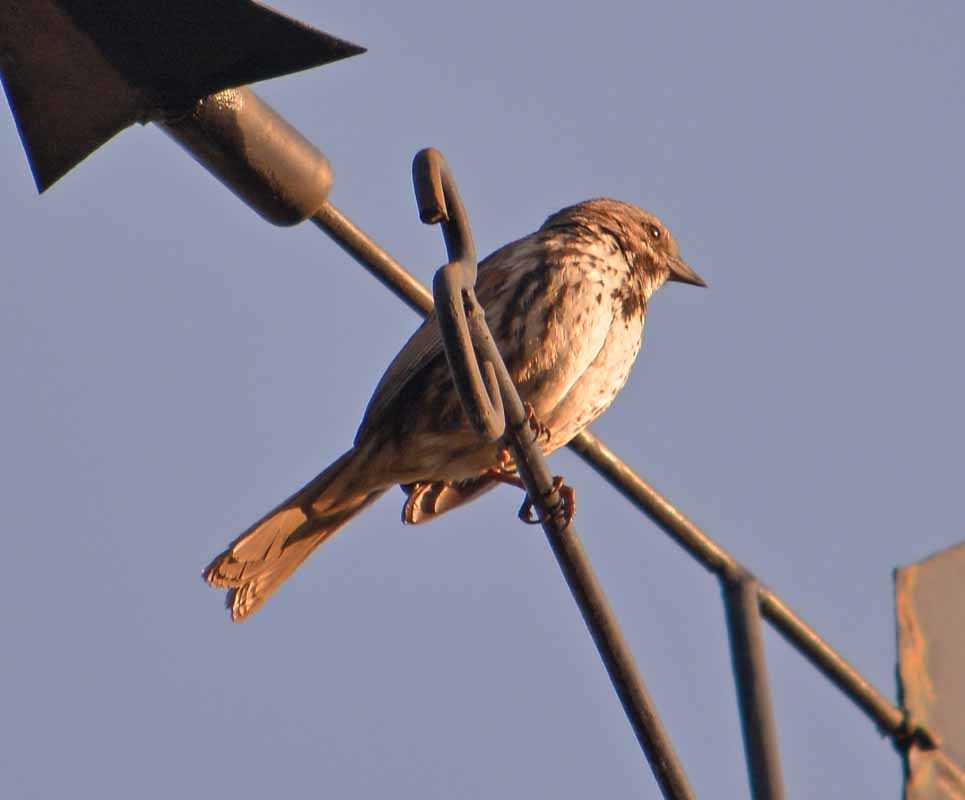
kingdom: Animalia
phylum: Chordata
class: Aves
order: Passeriformes
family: Passerellidae
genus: Melospiza
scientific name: Melospiza melodia
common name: Song sparrow
